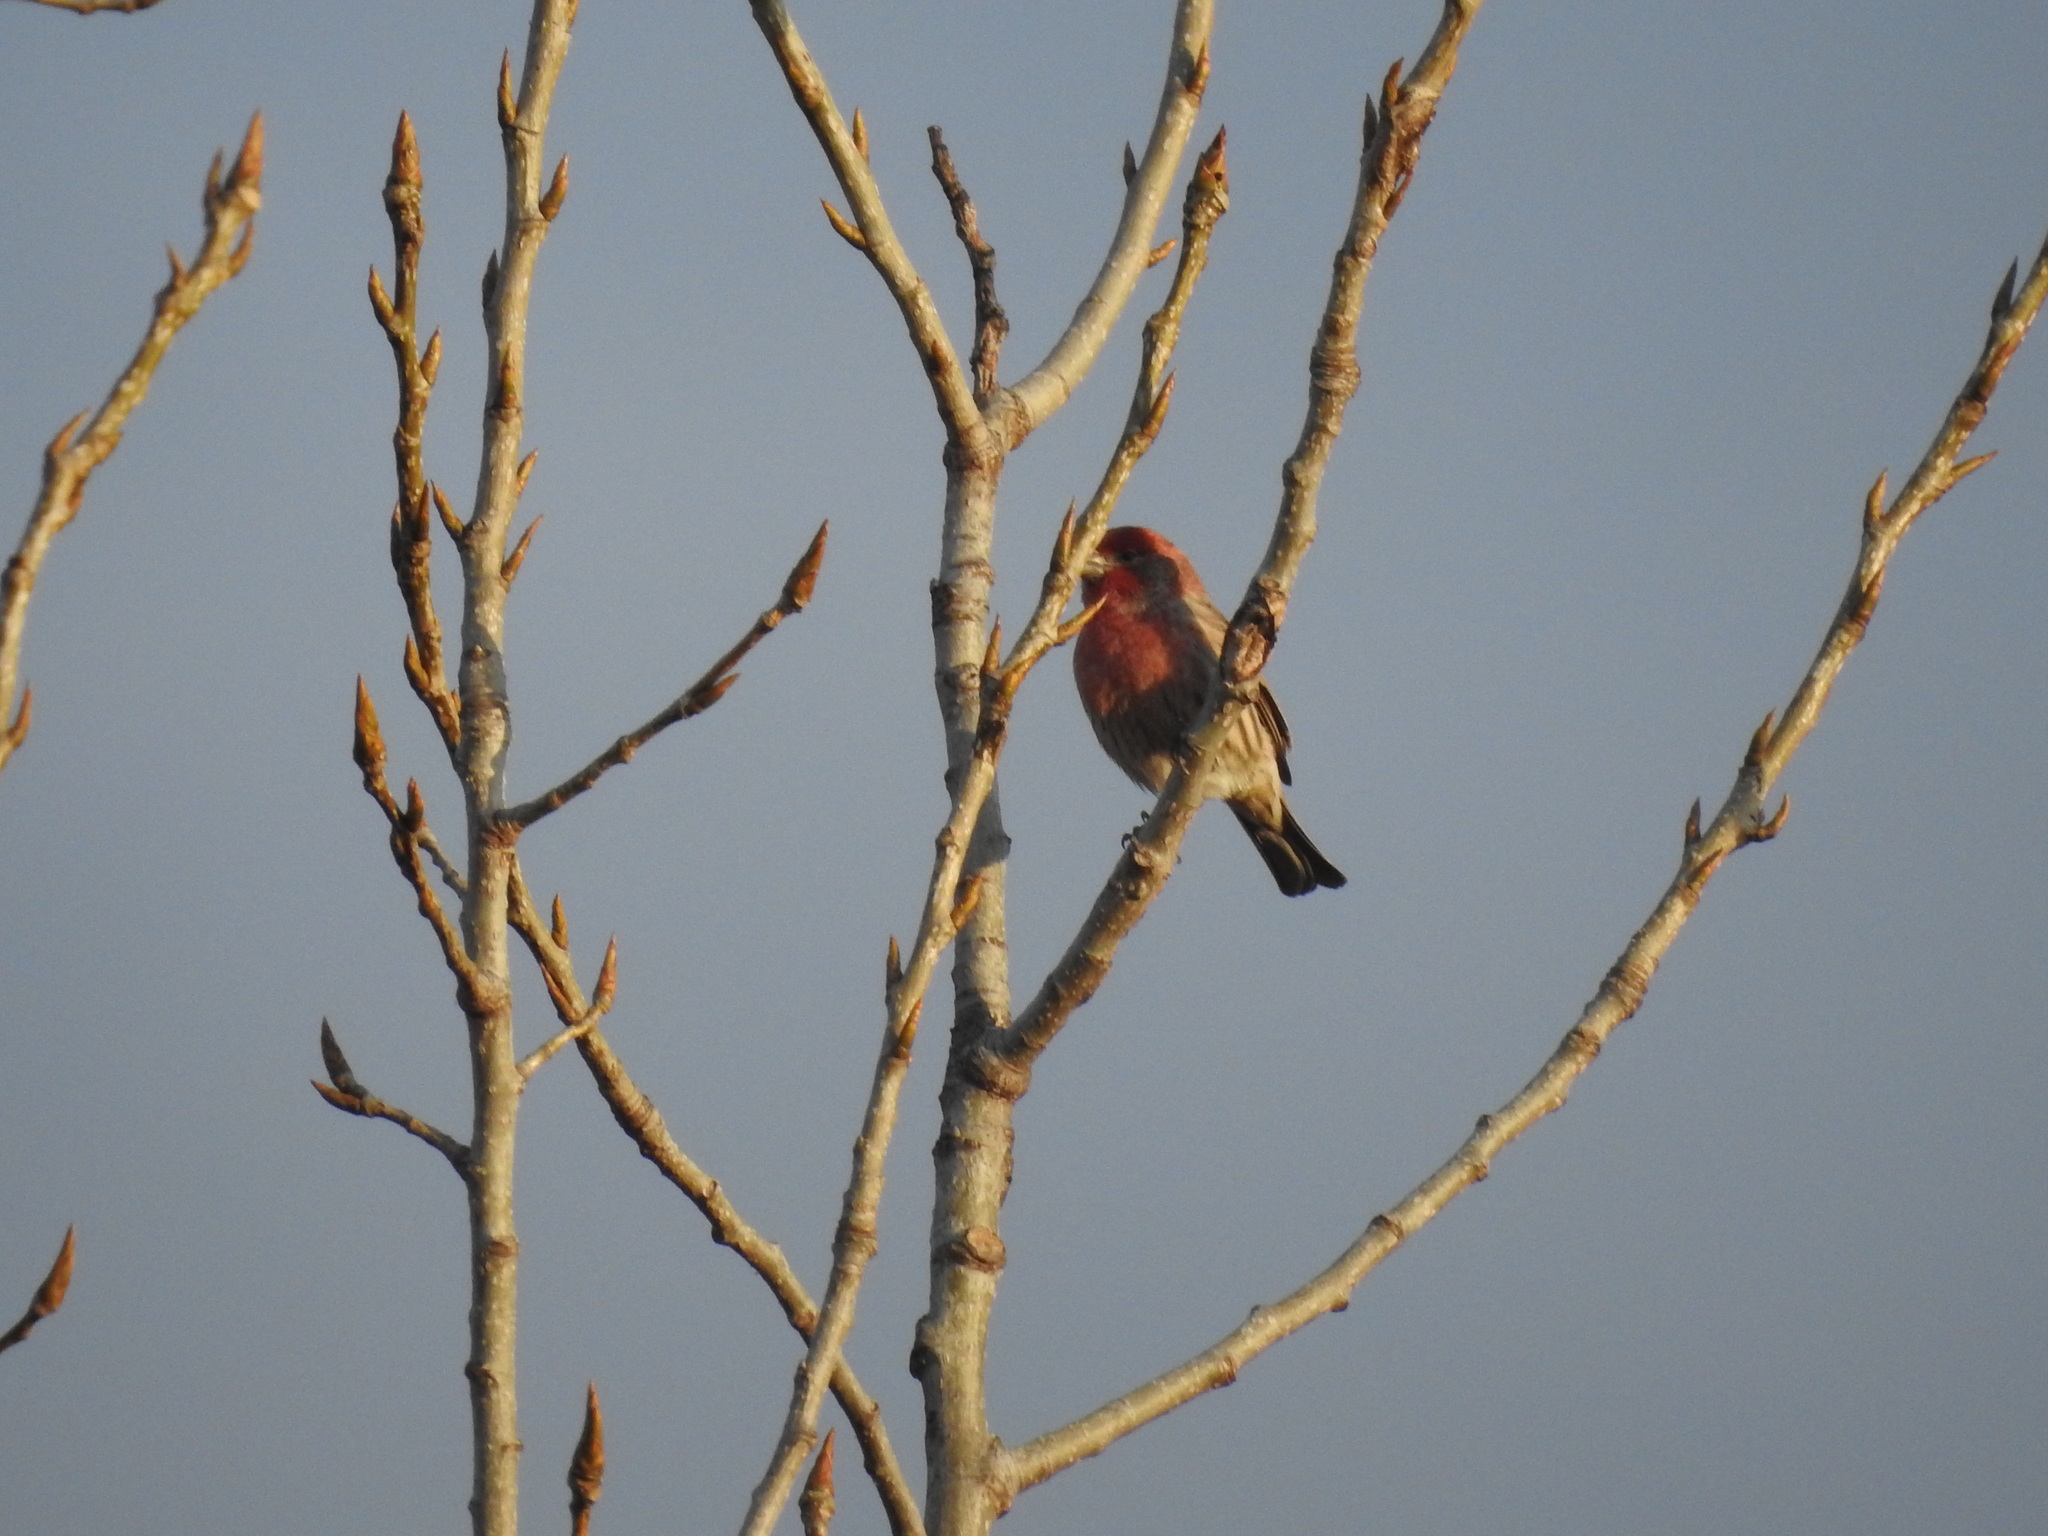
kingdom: Animalia
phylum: Chordata
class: Aves
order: Passeriformes
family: Fringillidae
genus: Haemorhous
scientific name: Haemorhous mexicanus
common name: House finch
